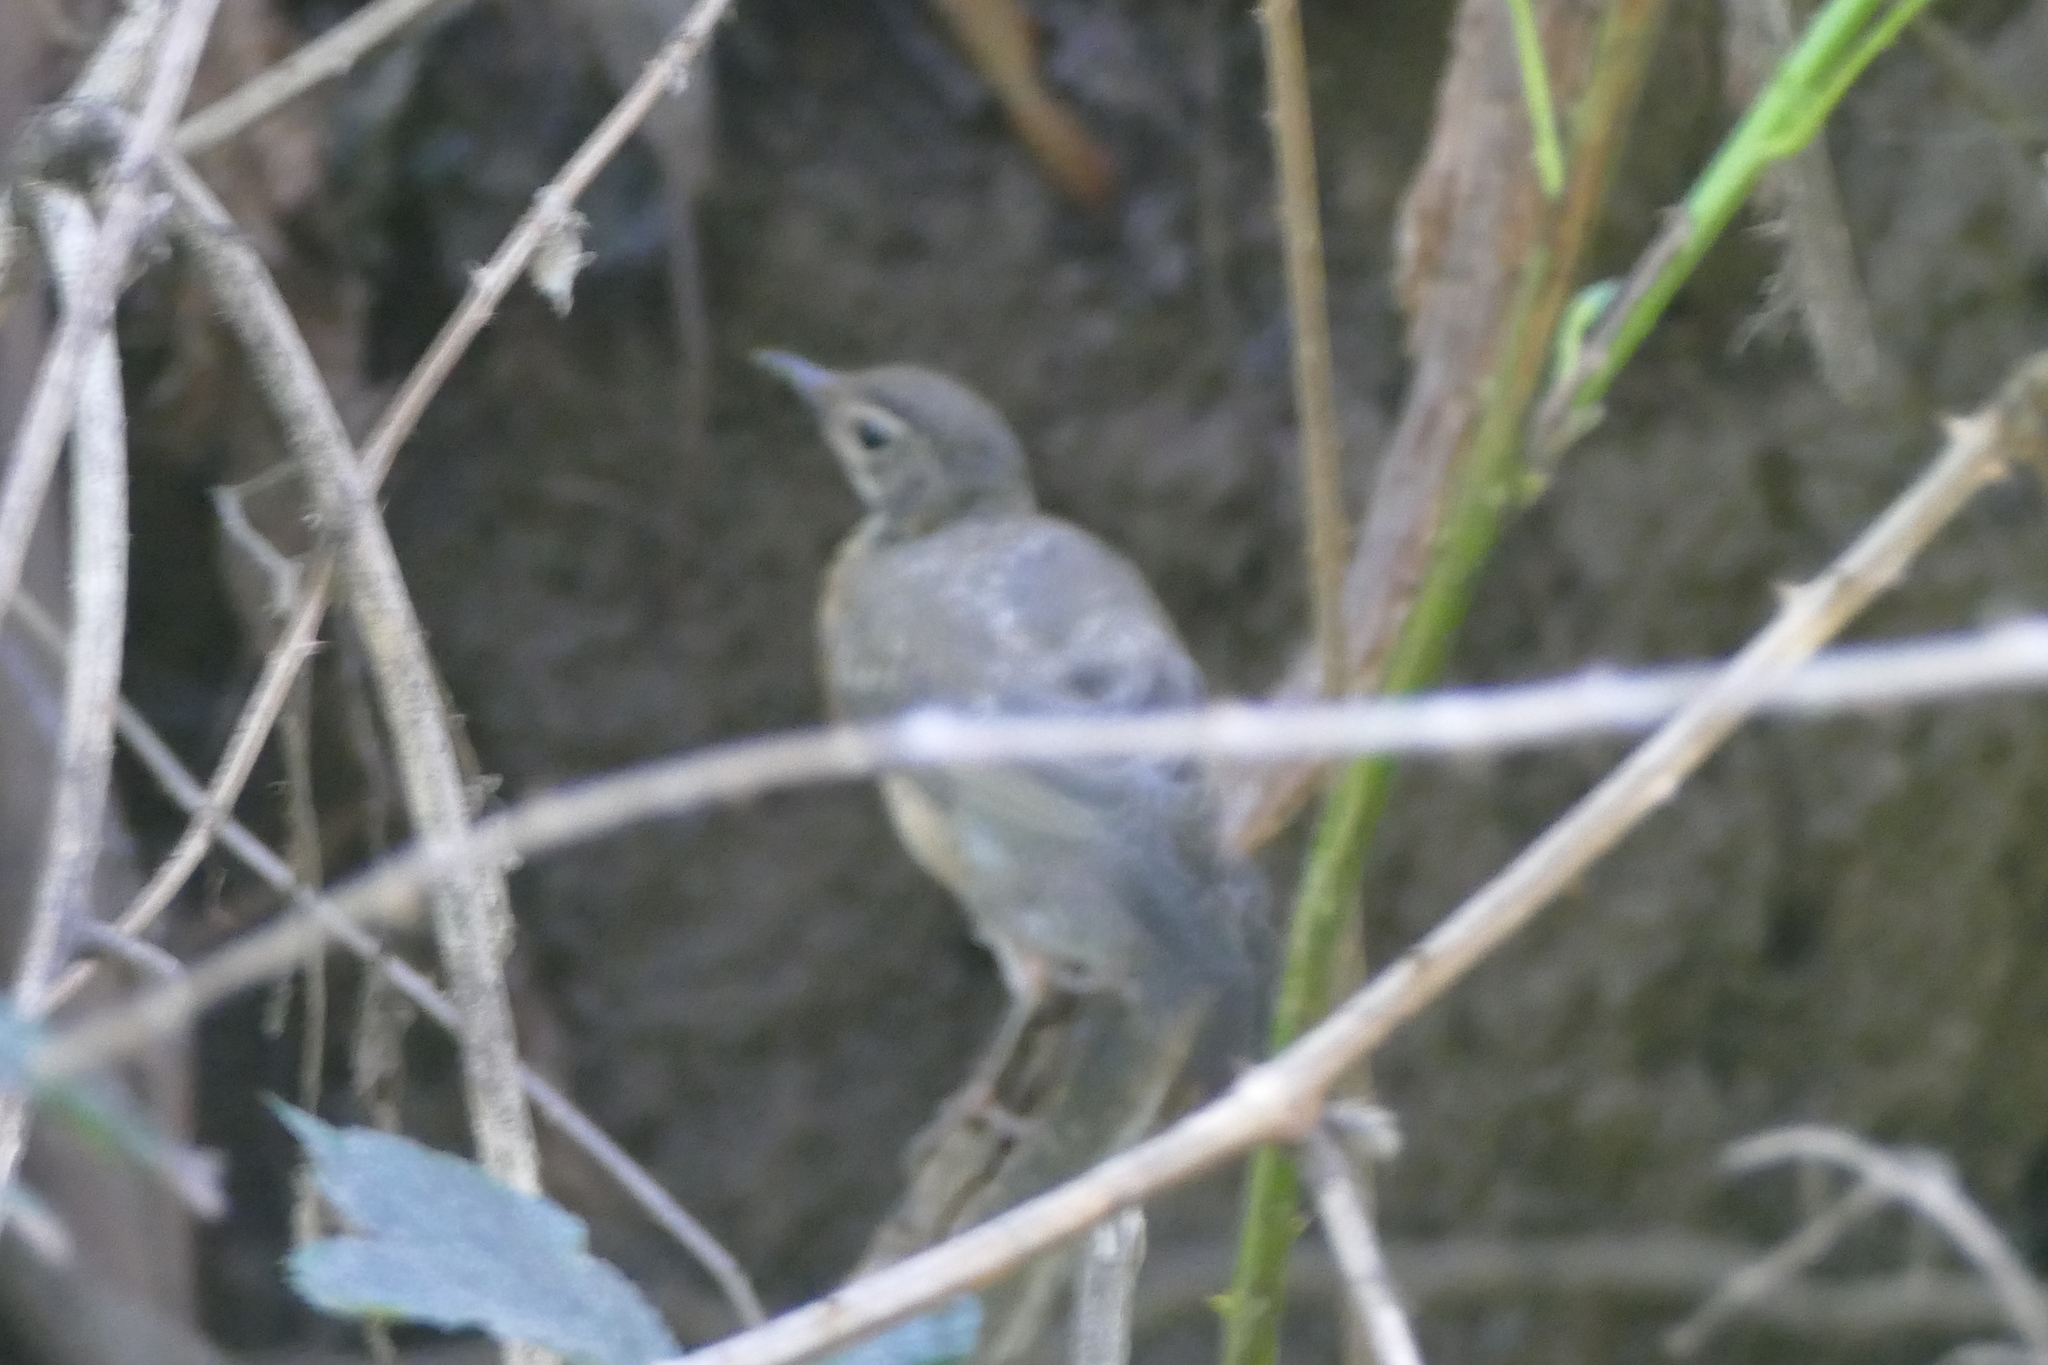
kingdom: Animalia
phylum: Chordata
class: Aves
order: Passeriformes
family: Turdidae
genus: Turdus
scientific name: Turdus migratorius
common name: American robin
